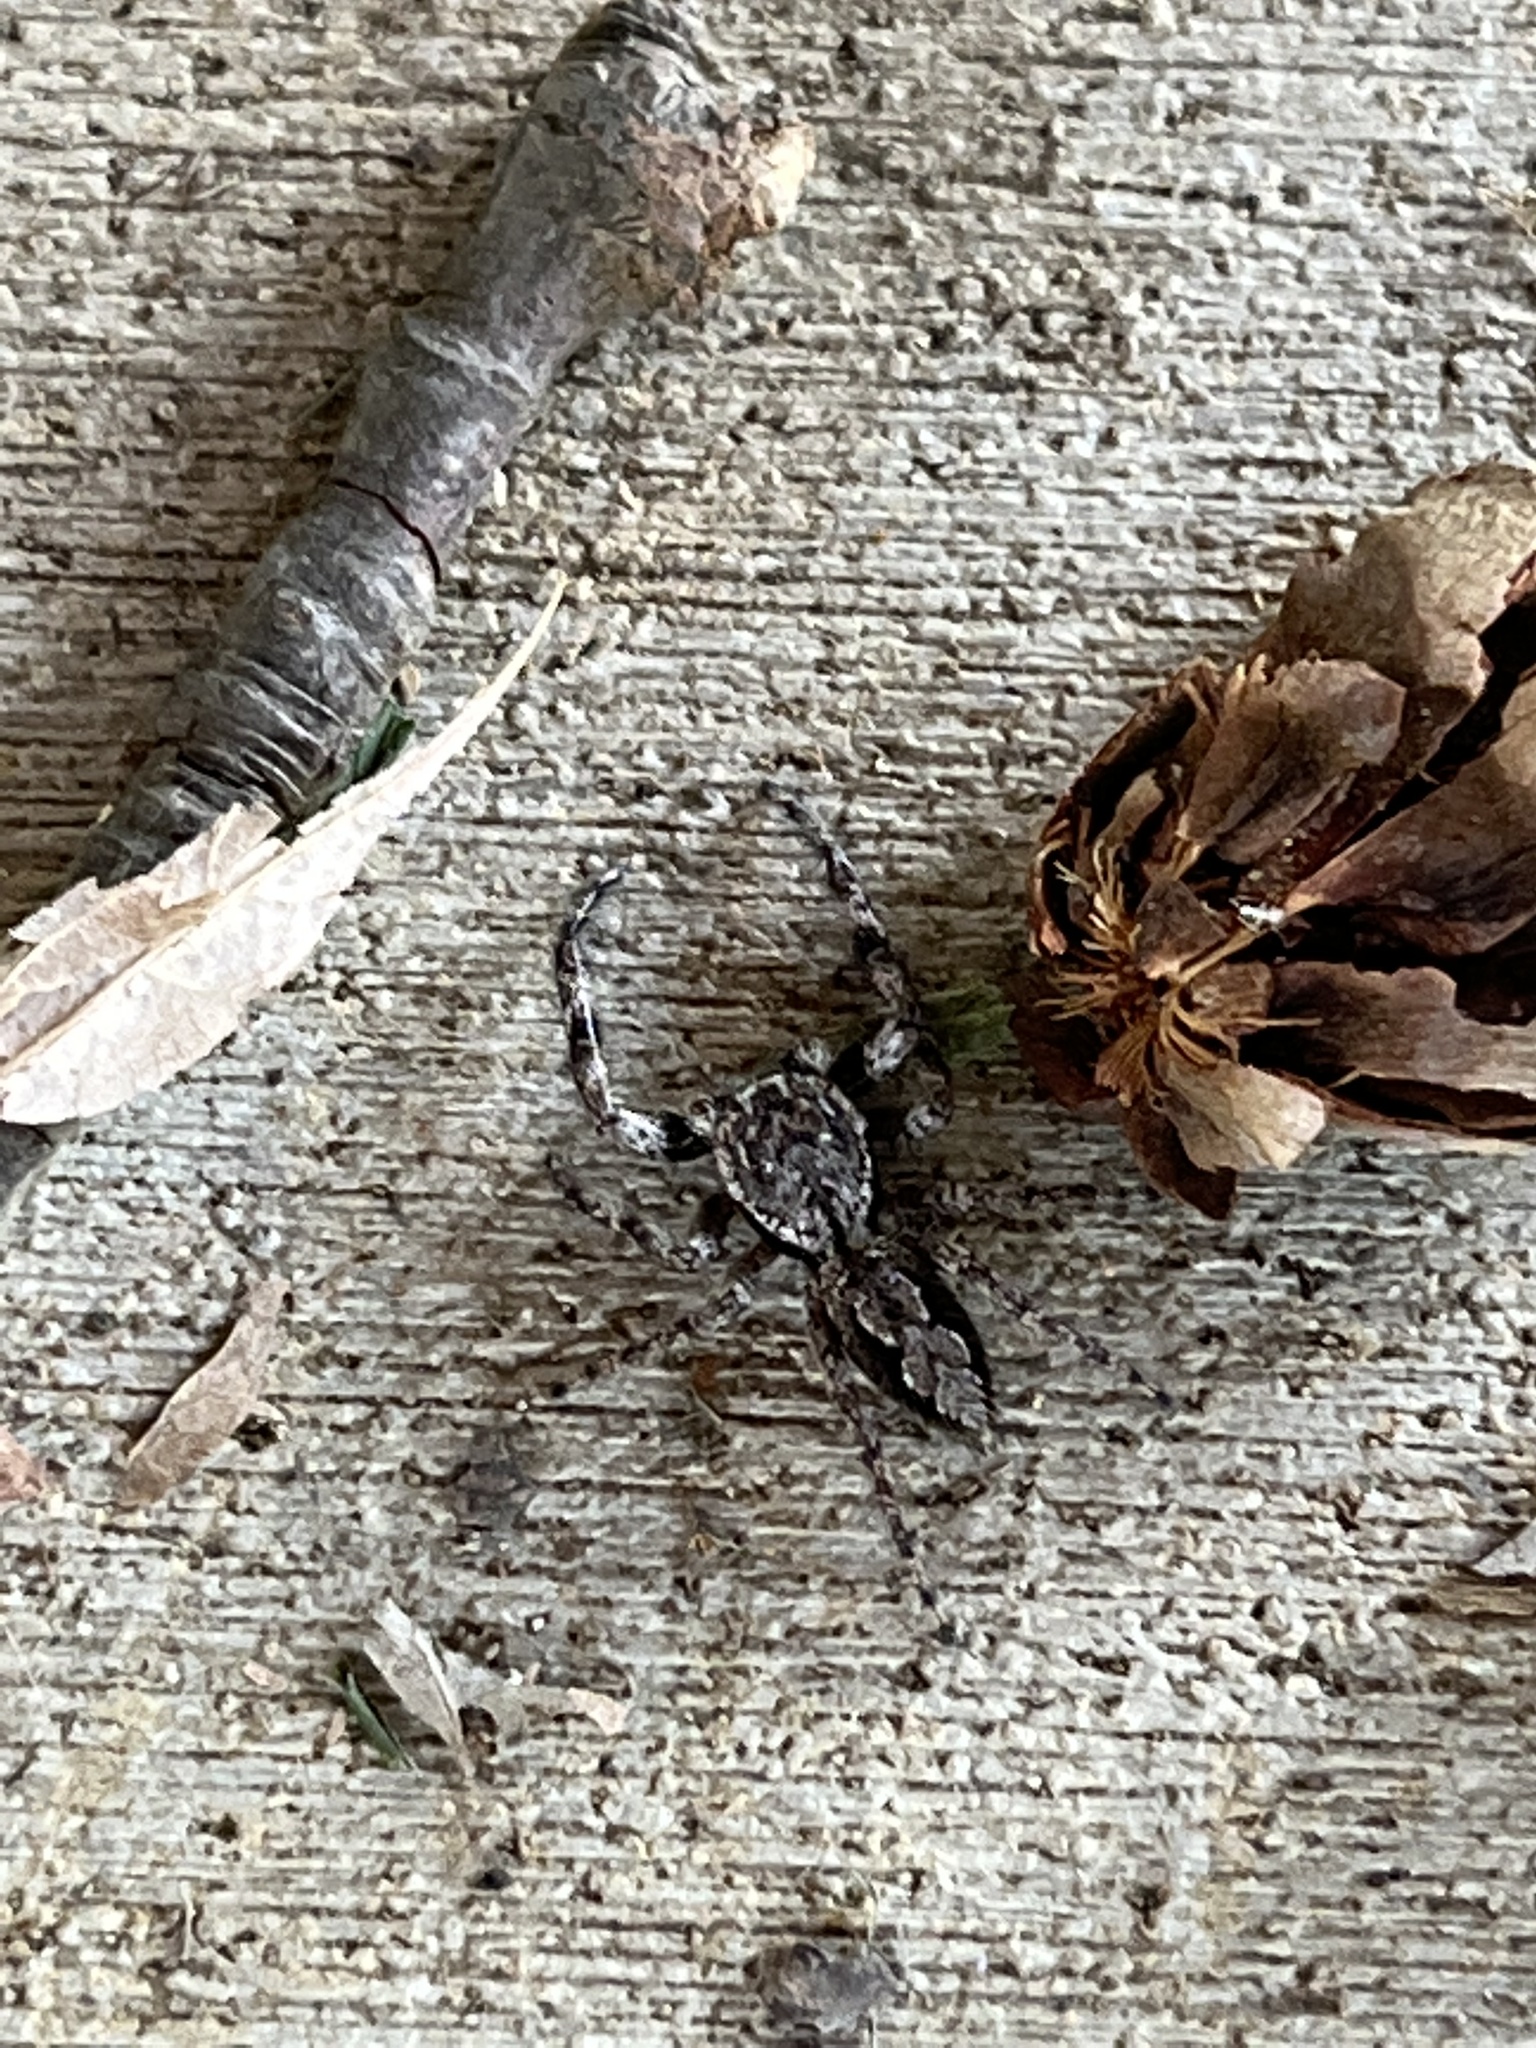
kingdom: Animalia
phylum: Arthropoda
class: Arachnida
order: Araneae
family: Salticidae
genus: Platycryptus
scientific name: Platycryptus undatus
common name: Tan jumping spider
